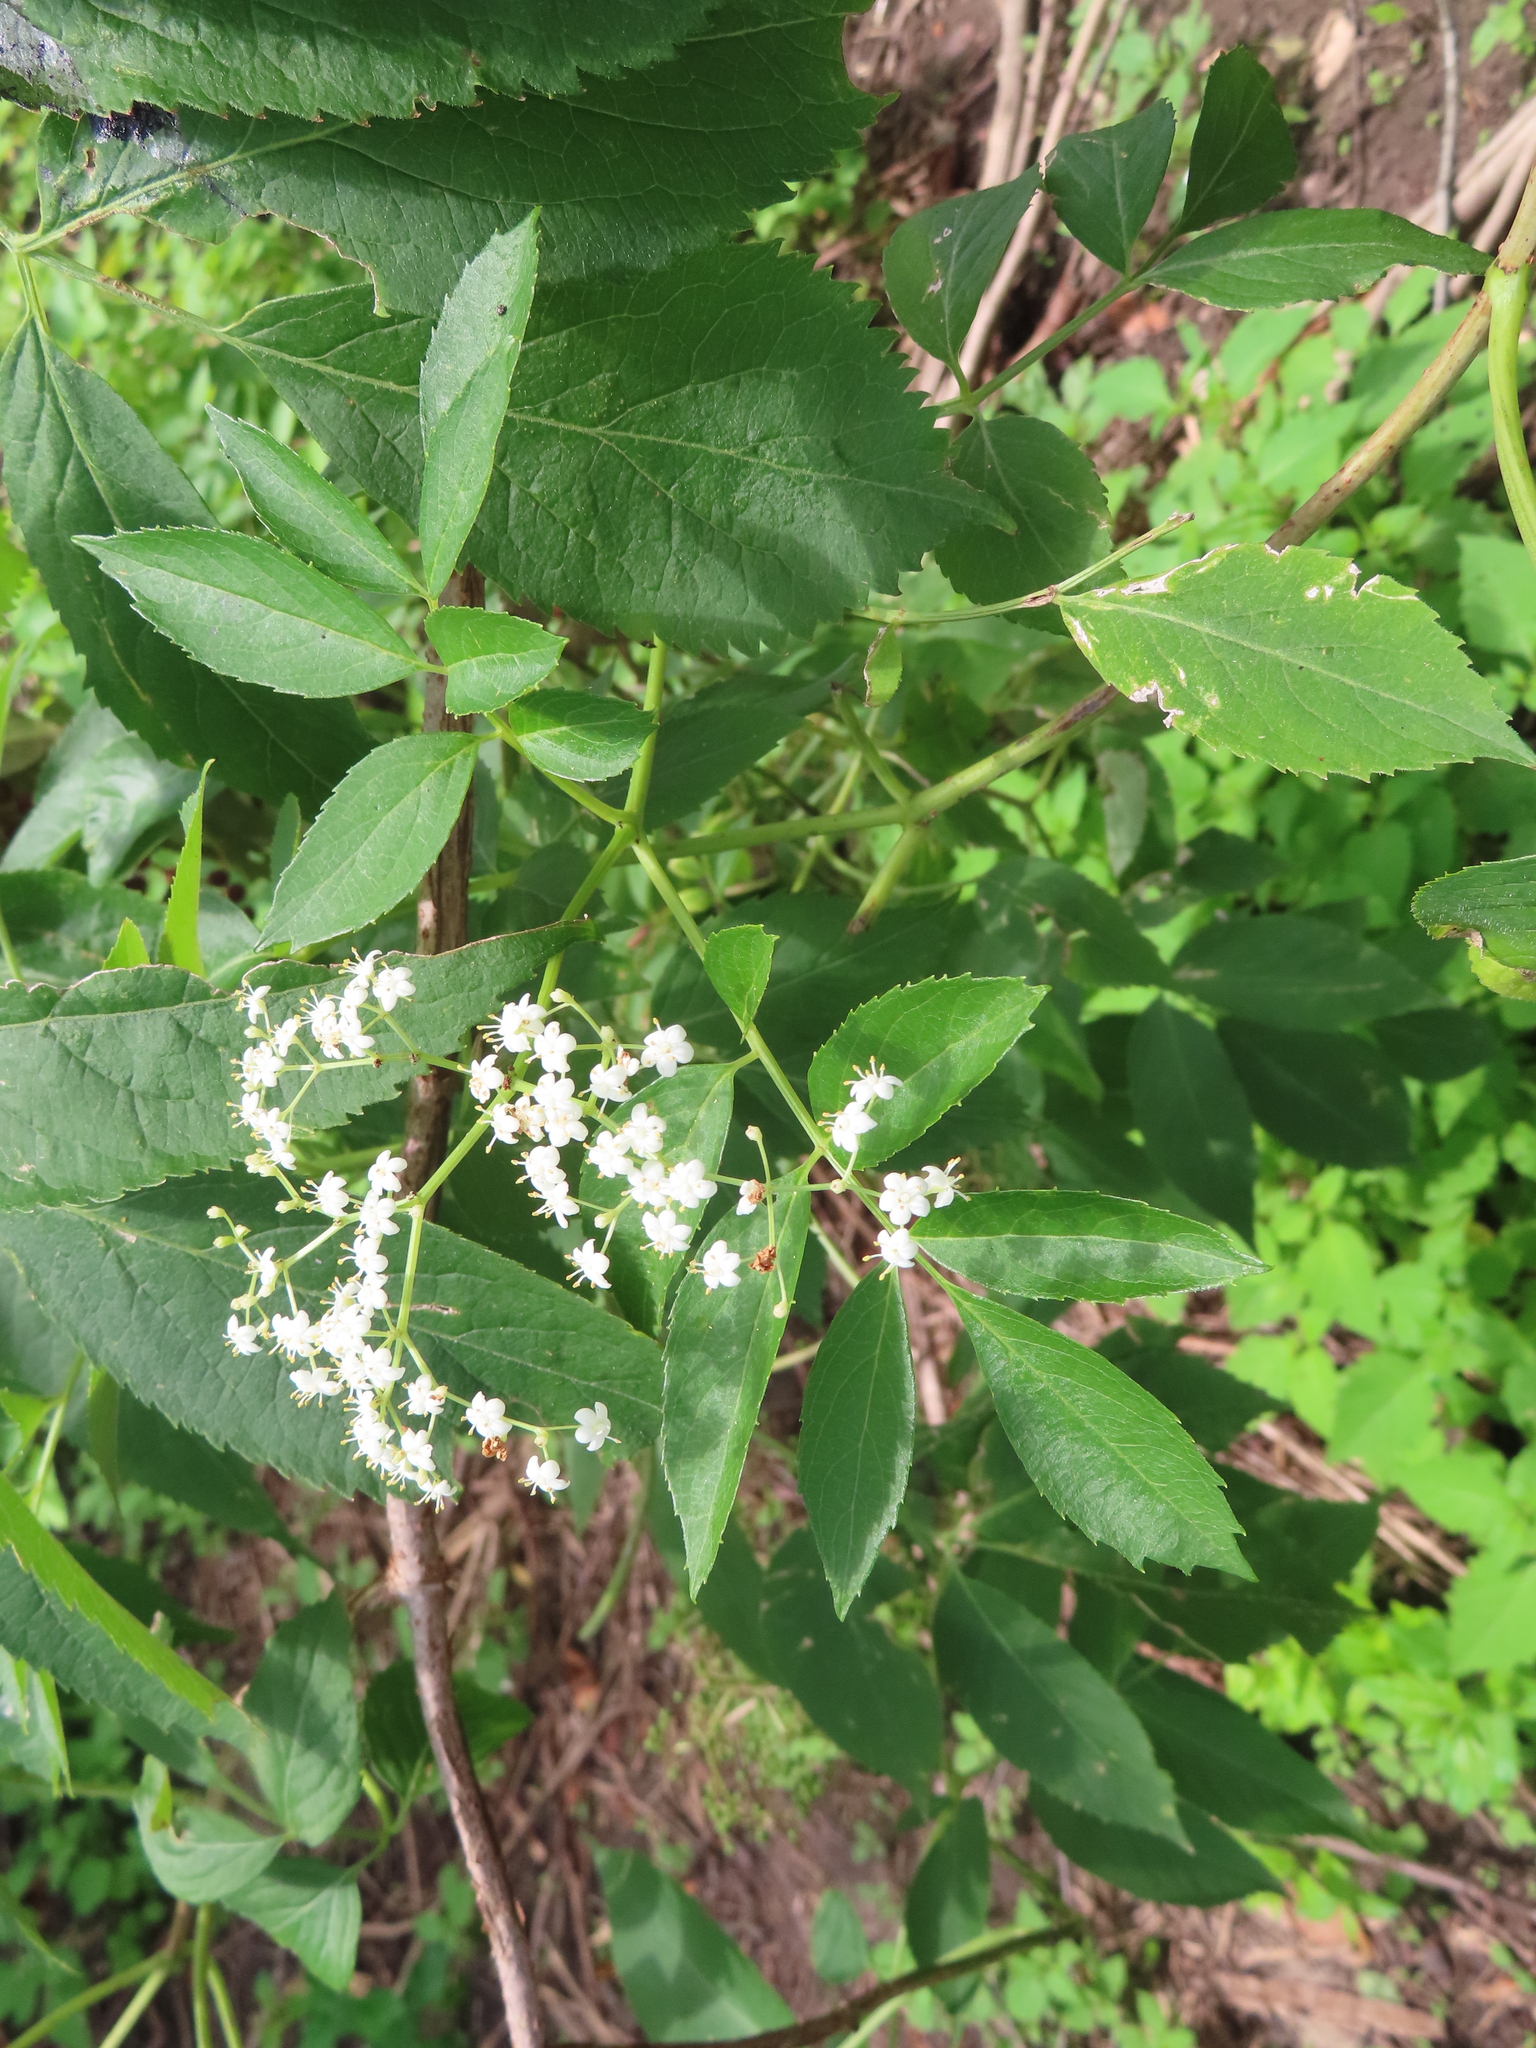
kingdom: Plantae
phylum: Tracheophyta
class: Magnoliopsida
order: Dipsacales
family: Viburnaceae
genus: Sambucus
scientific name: Sambucus canadensis
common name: American elder
